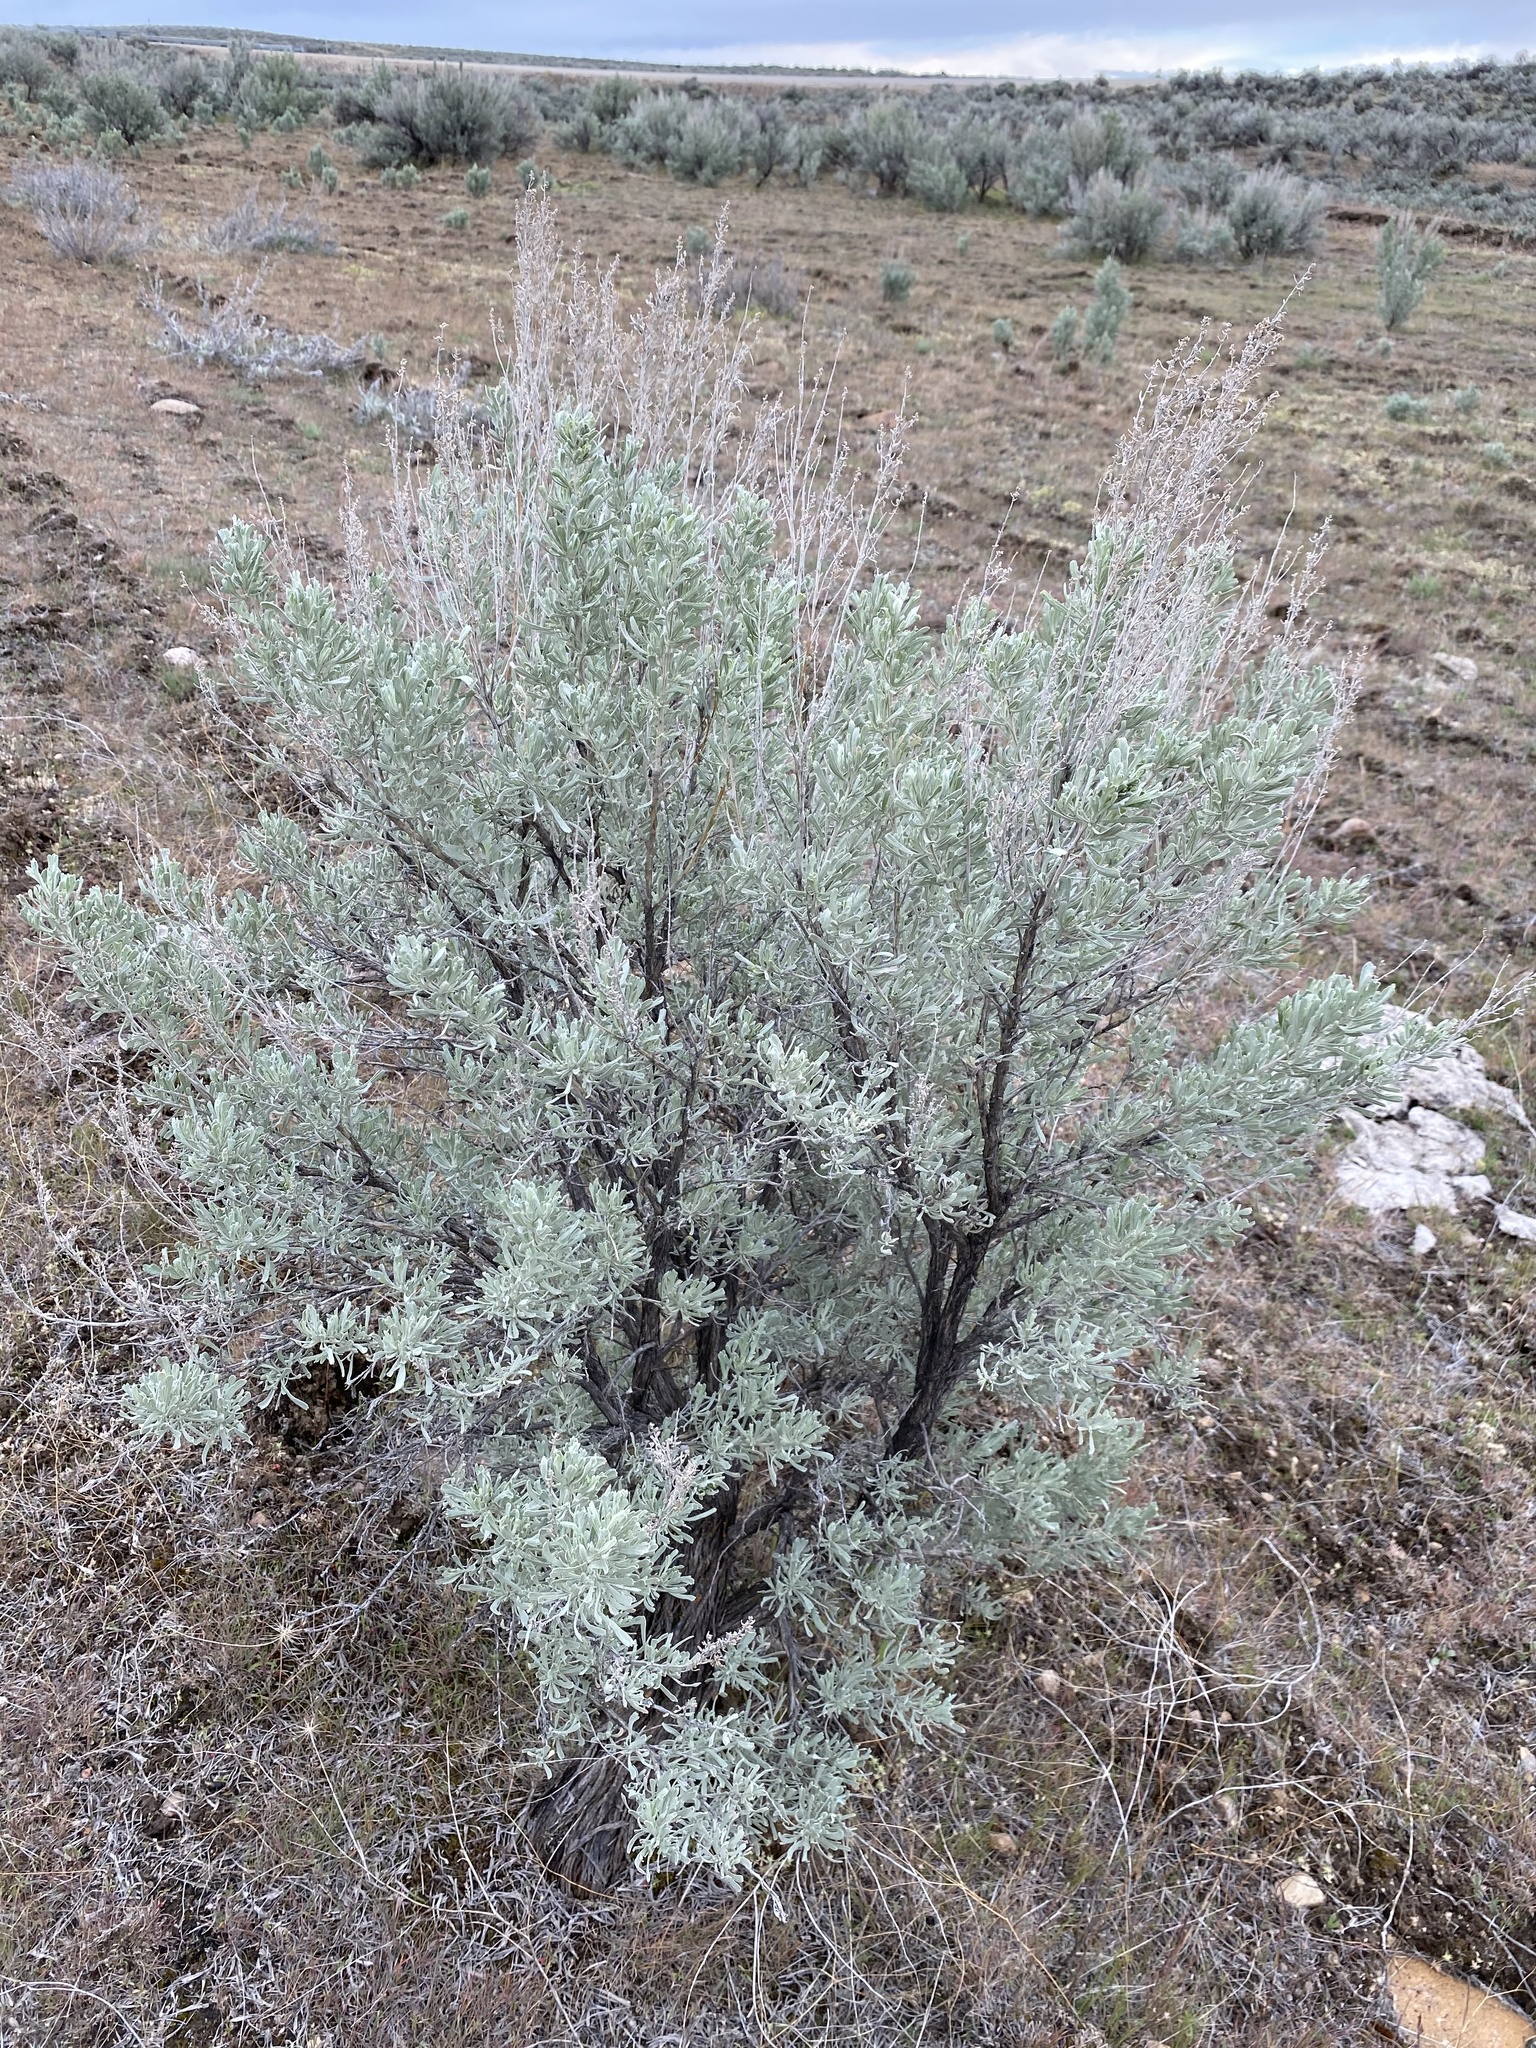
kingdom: Plantae
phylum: Tracheophyta
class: Magnoliopsida
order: Asterales
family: Asteraceae
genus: Artemisia
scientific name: Artemisia tridentata
